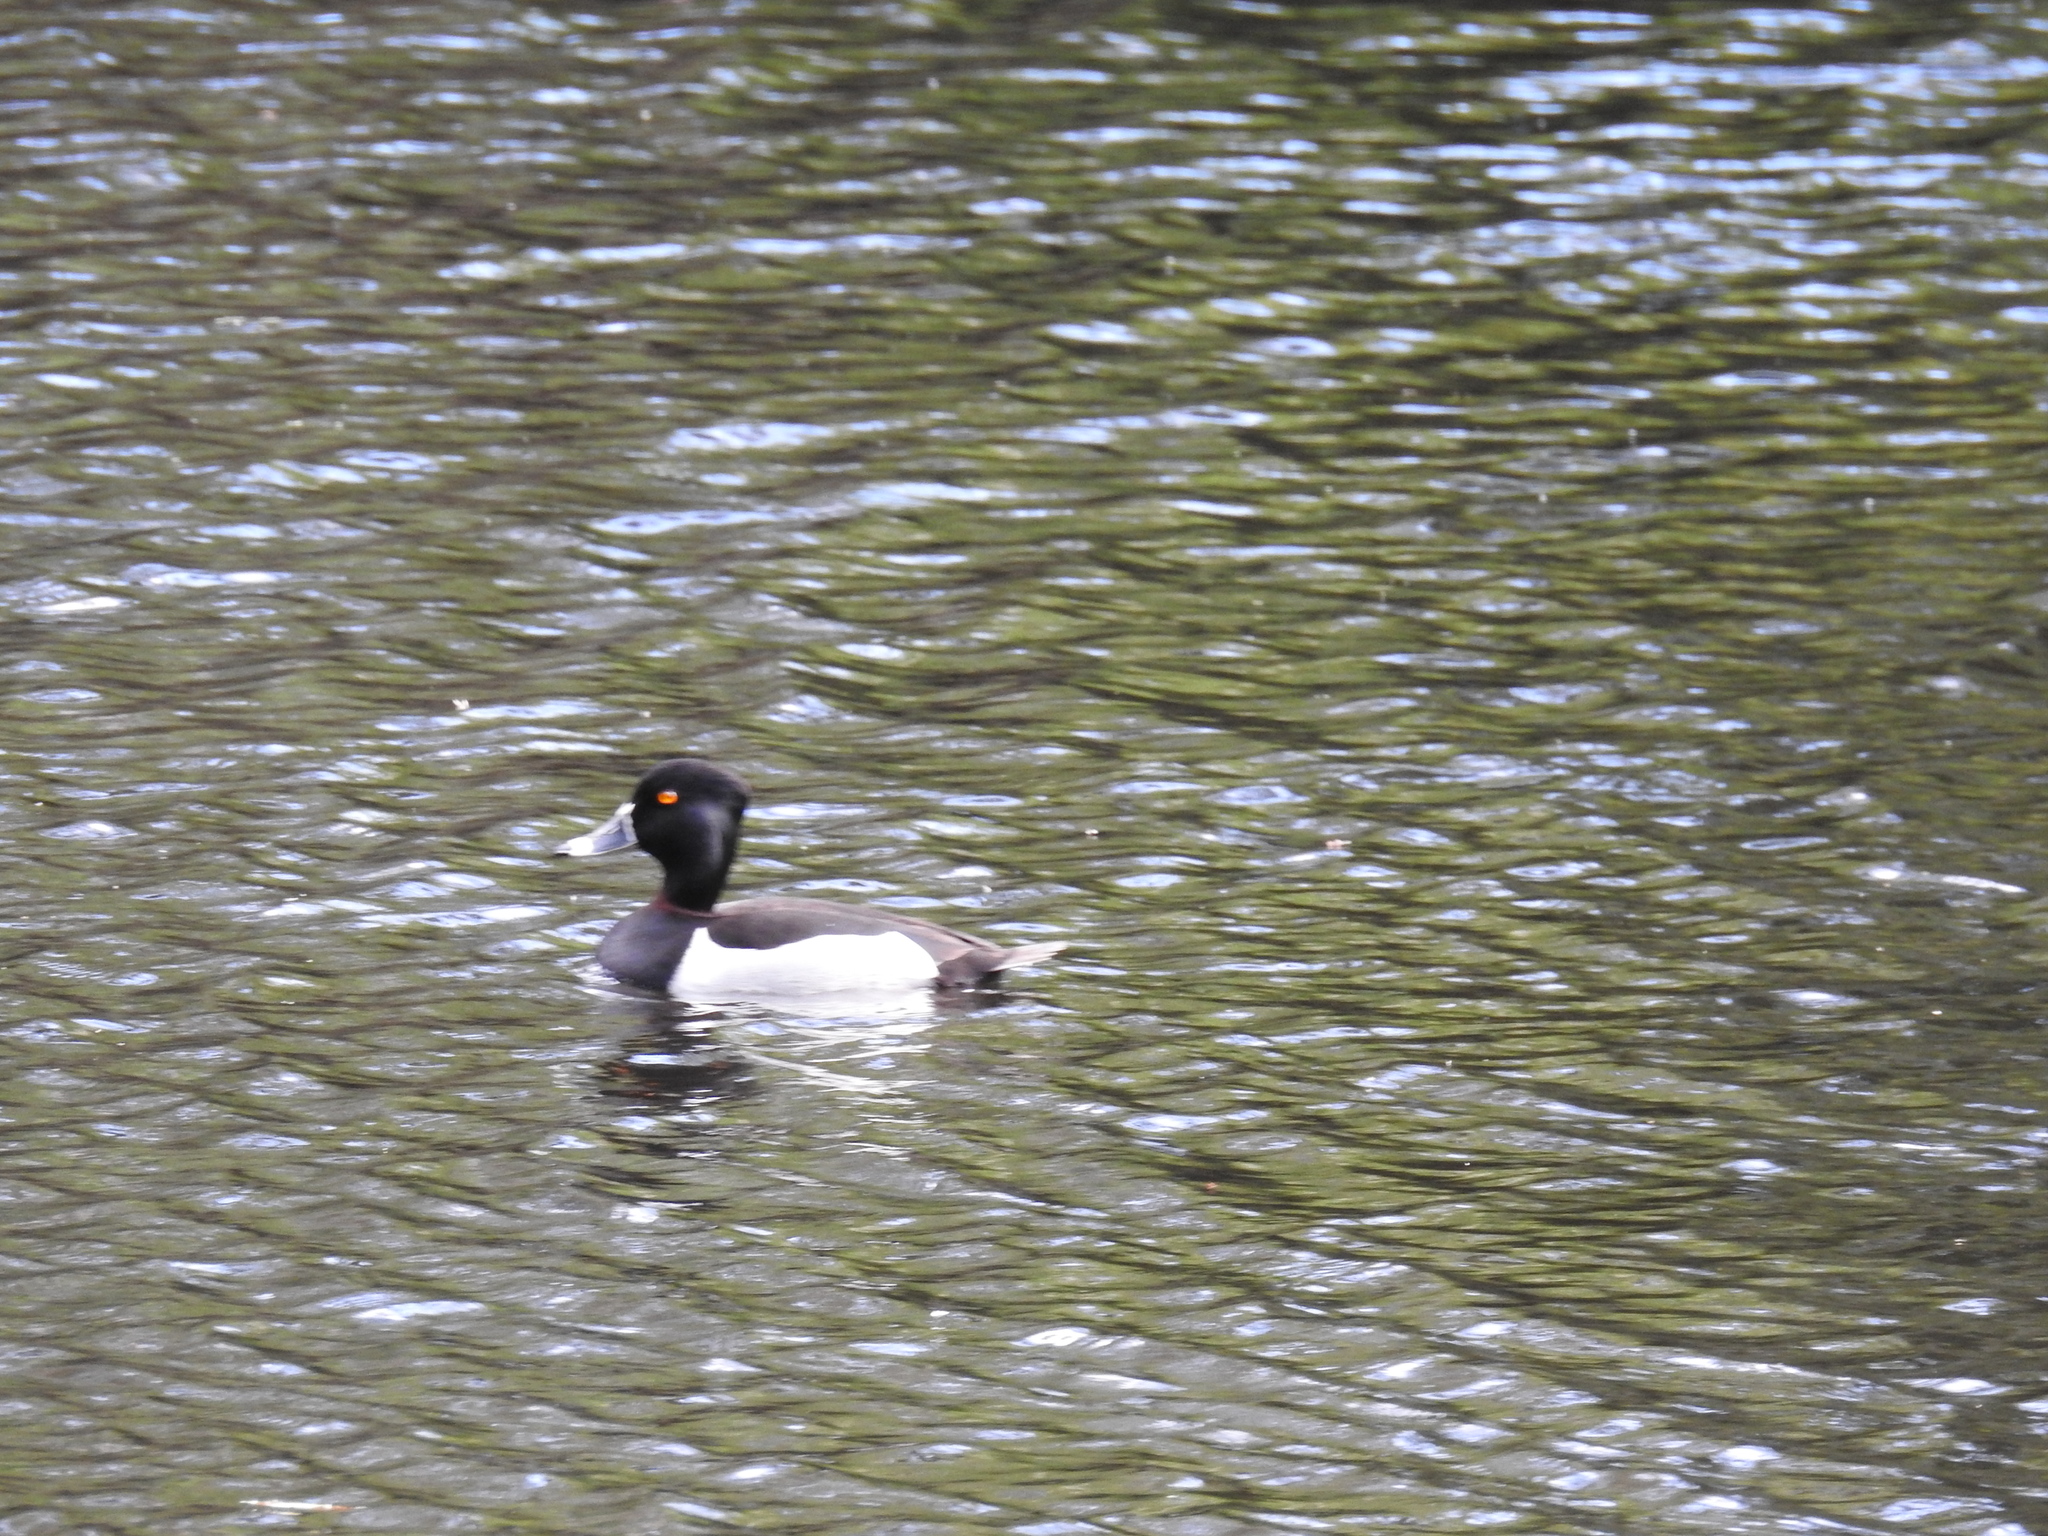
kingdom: Animalia
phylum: Chordata
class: Aves
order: Anseriformes
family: Anatidae
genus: Aythya
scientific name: Aythya collaris
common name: Ring-necked duck
